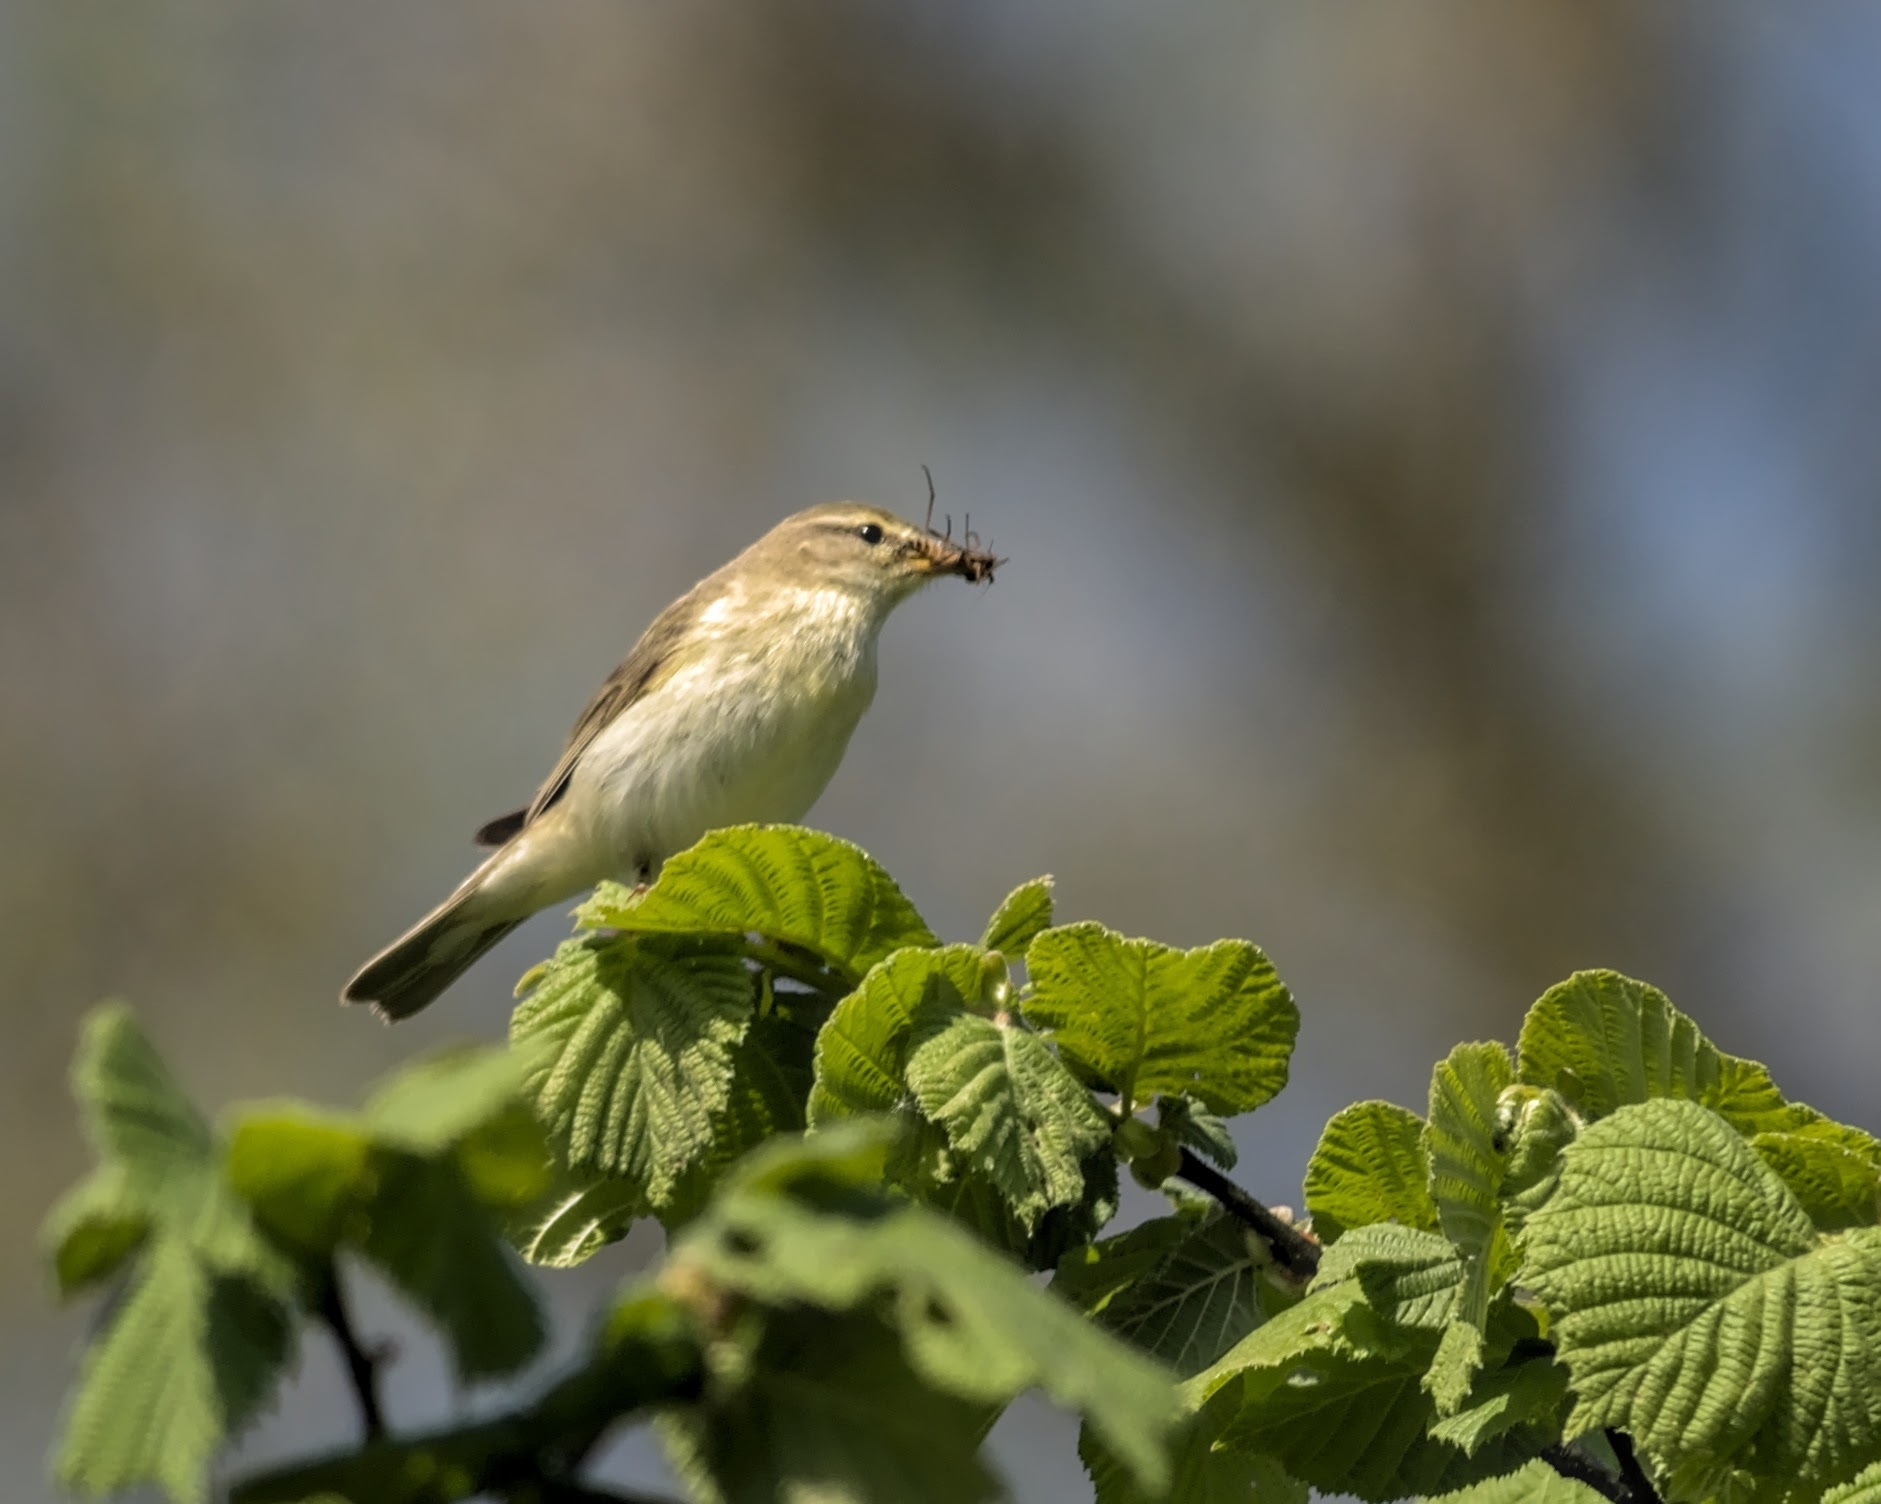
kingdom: Animalia
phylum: Chordata
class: Aves
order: Passeriformes
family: Phylloscopidae
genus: Phylloscopus
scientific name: Phylloscopus trochilus
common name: Willow warbler
